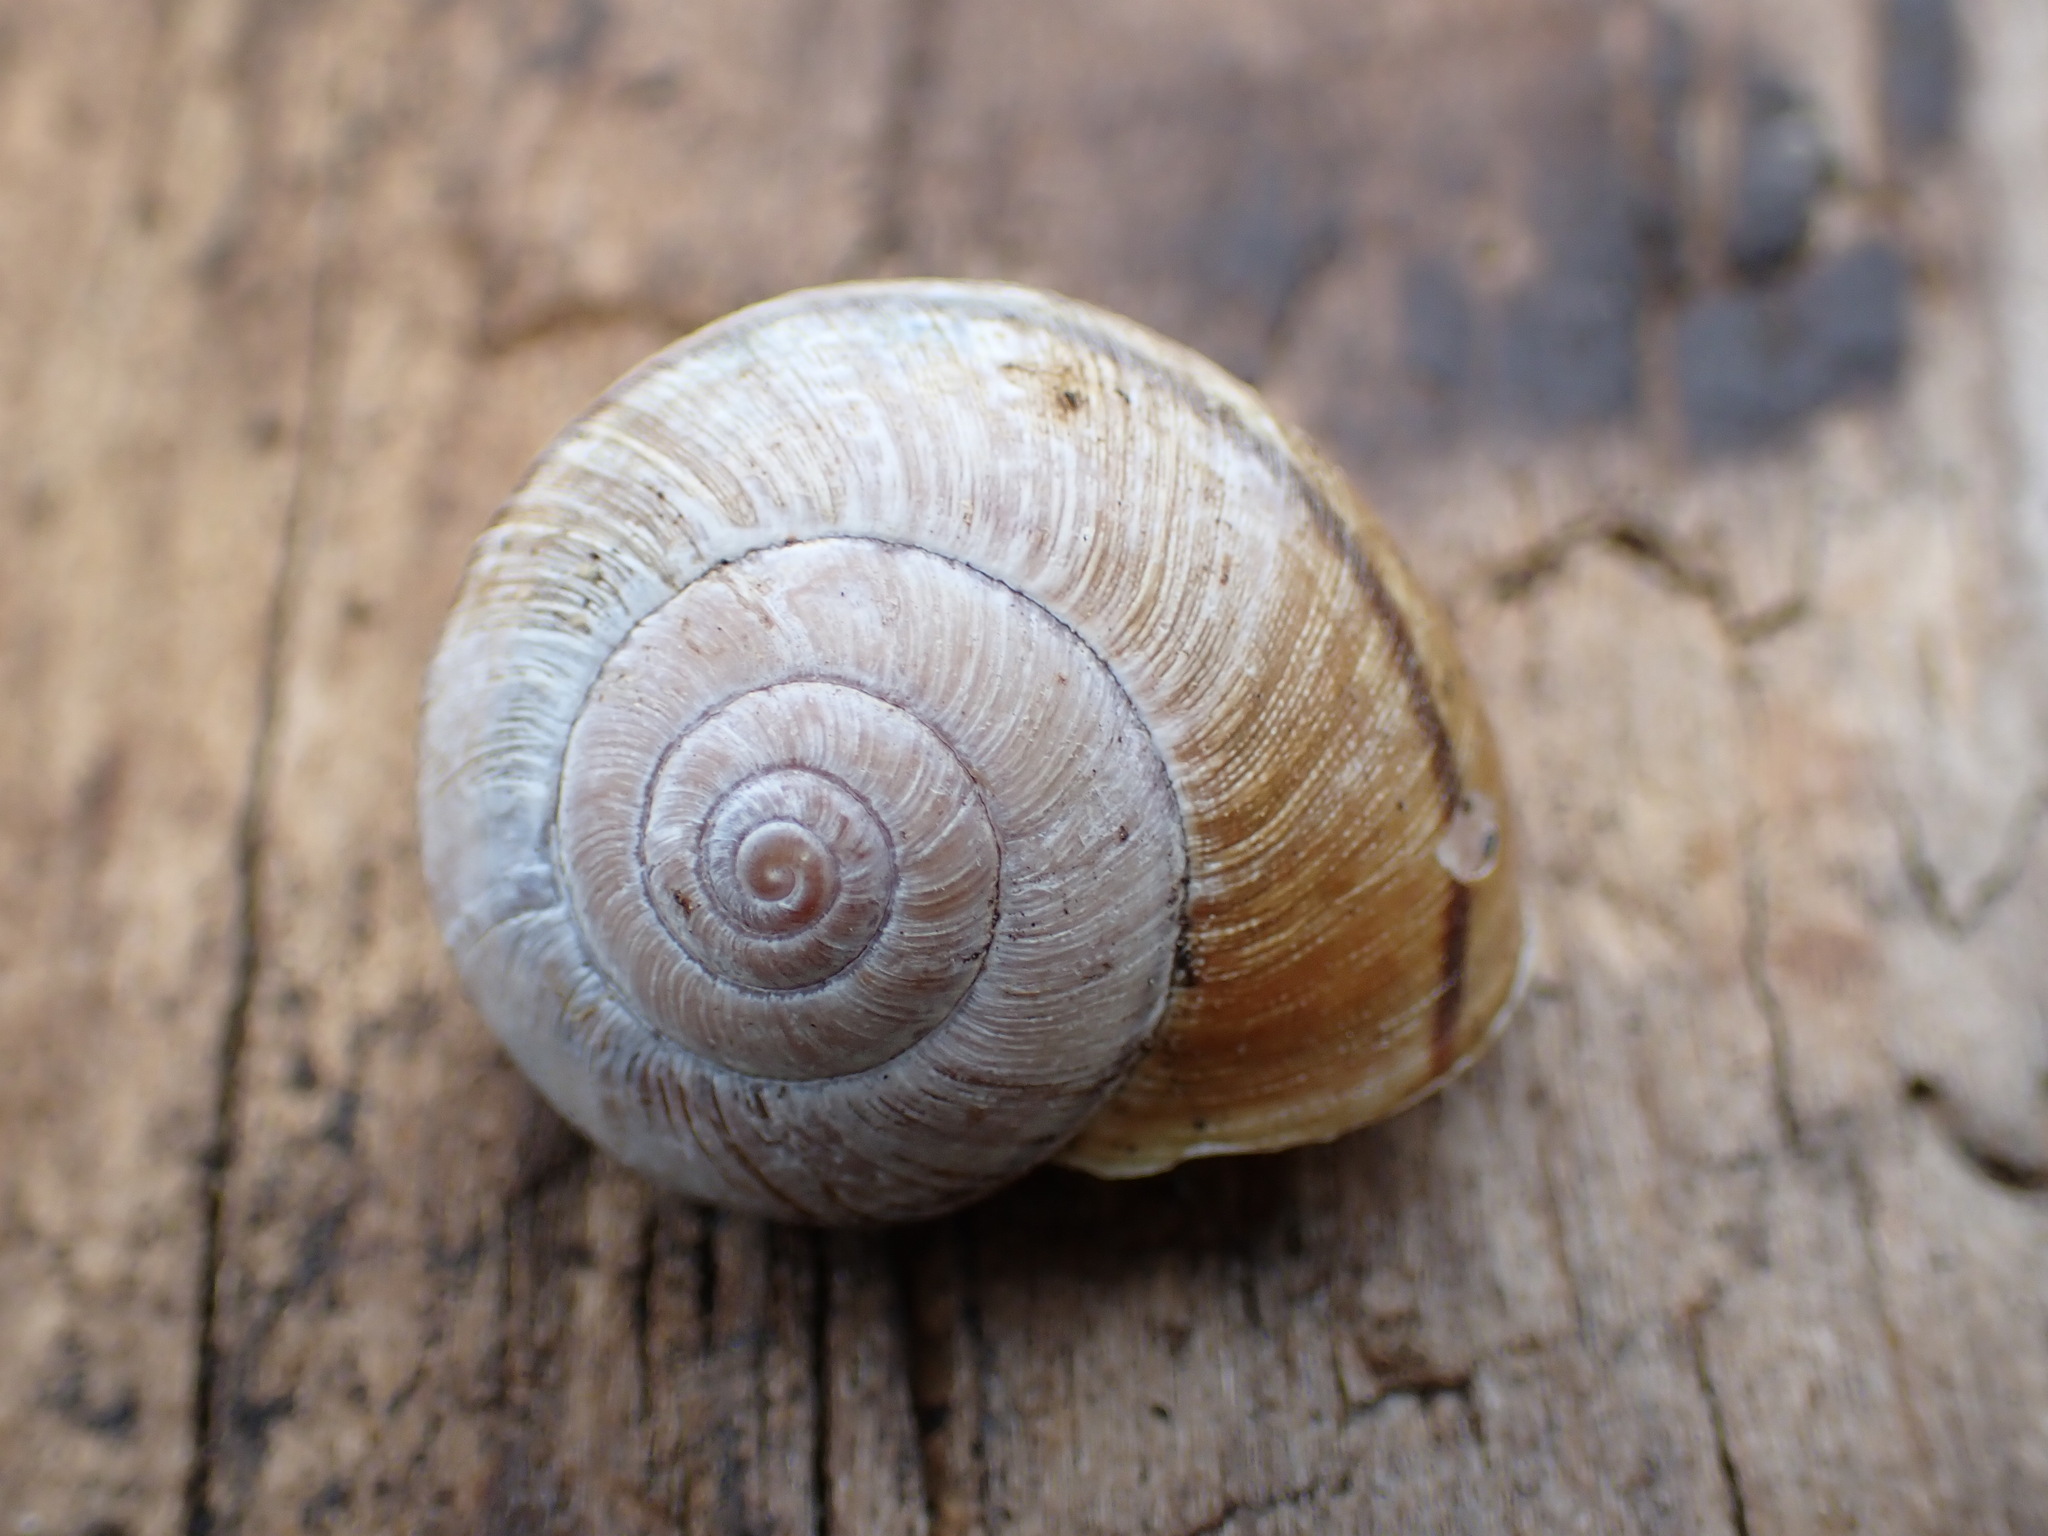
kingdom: Animalia
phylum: Mollusca
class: Gastropoda
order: Stylommatophora
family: Xanthonychidae
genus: Noyo
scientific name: Noyo intersessa
